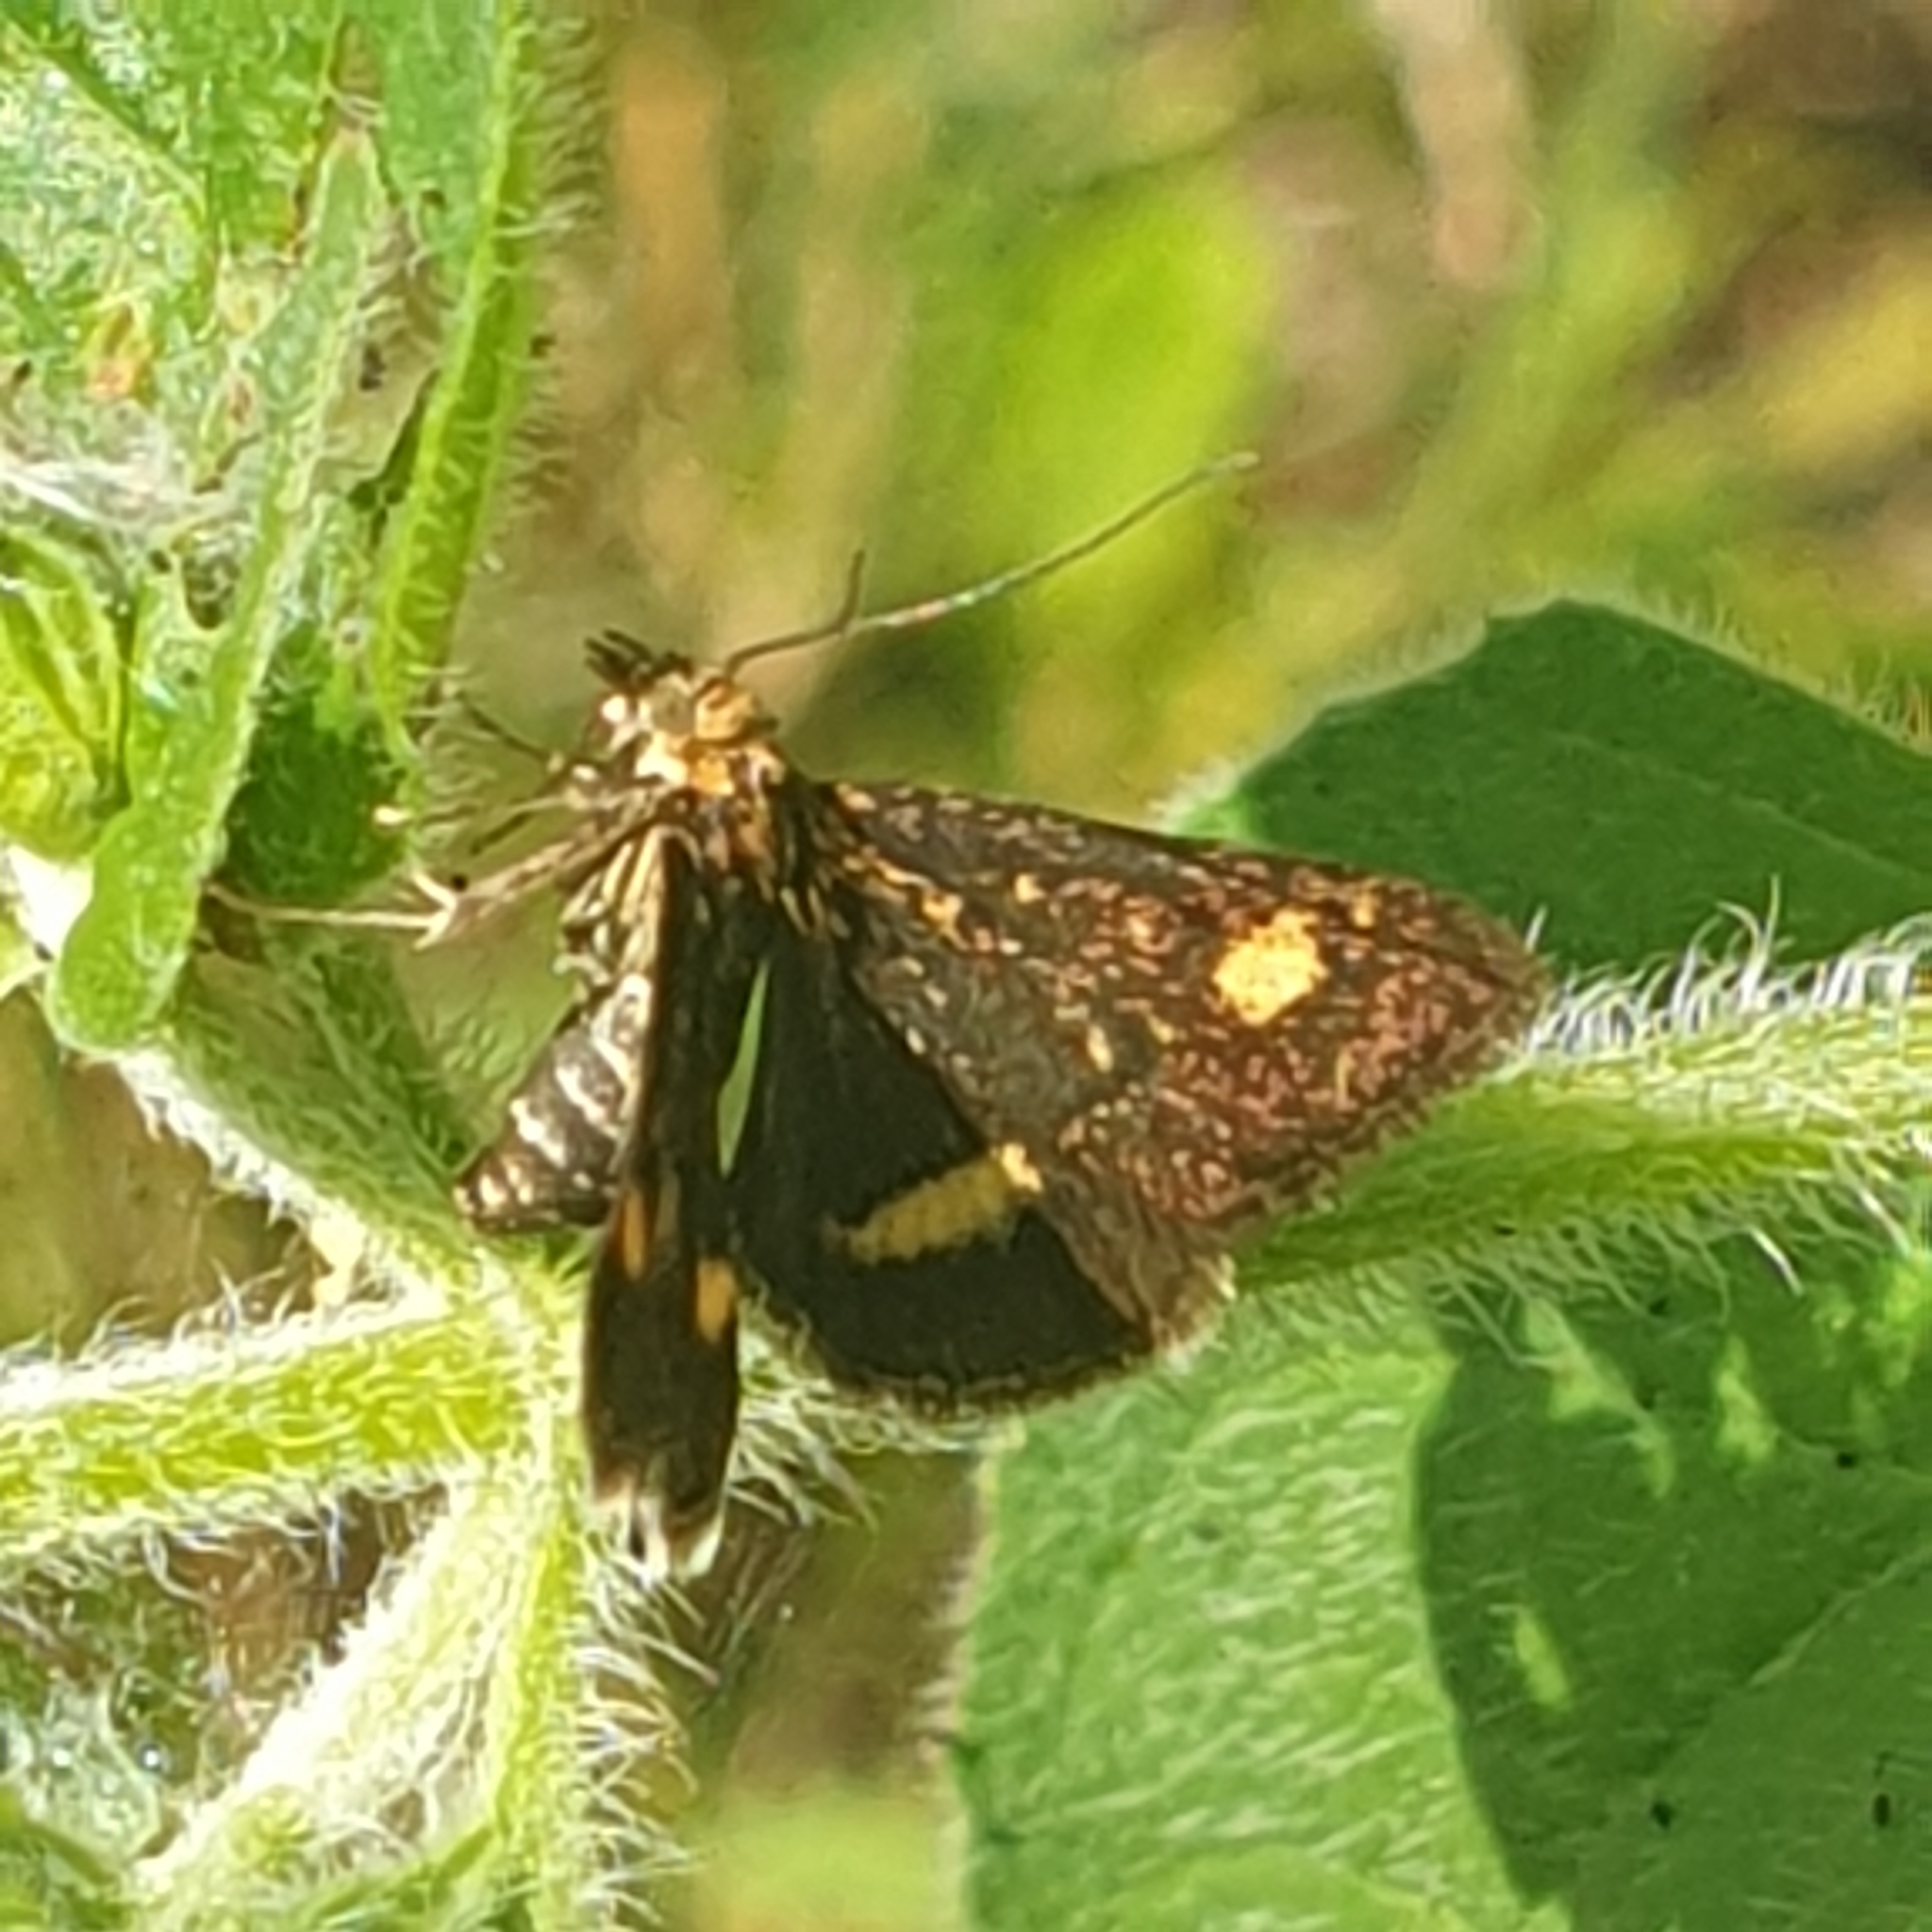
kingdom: Animalia
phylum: Arthropoda
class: Insecta
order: Lepidoptera
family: Crambidae
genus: Pyrausta
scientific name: Pyrausta aurata
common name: Small purple & gold
